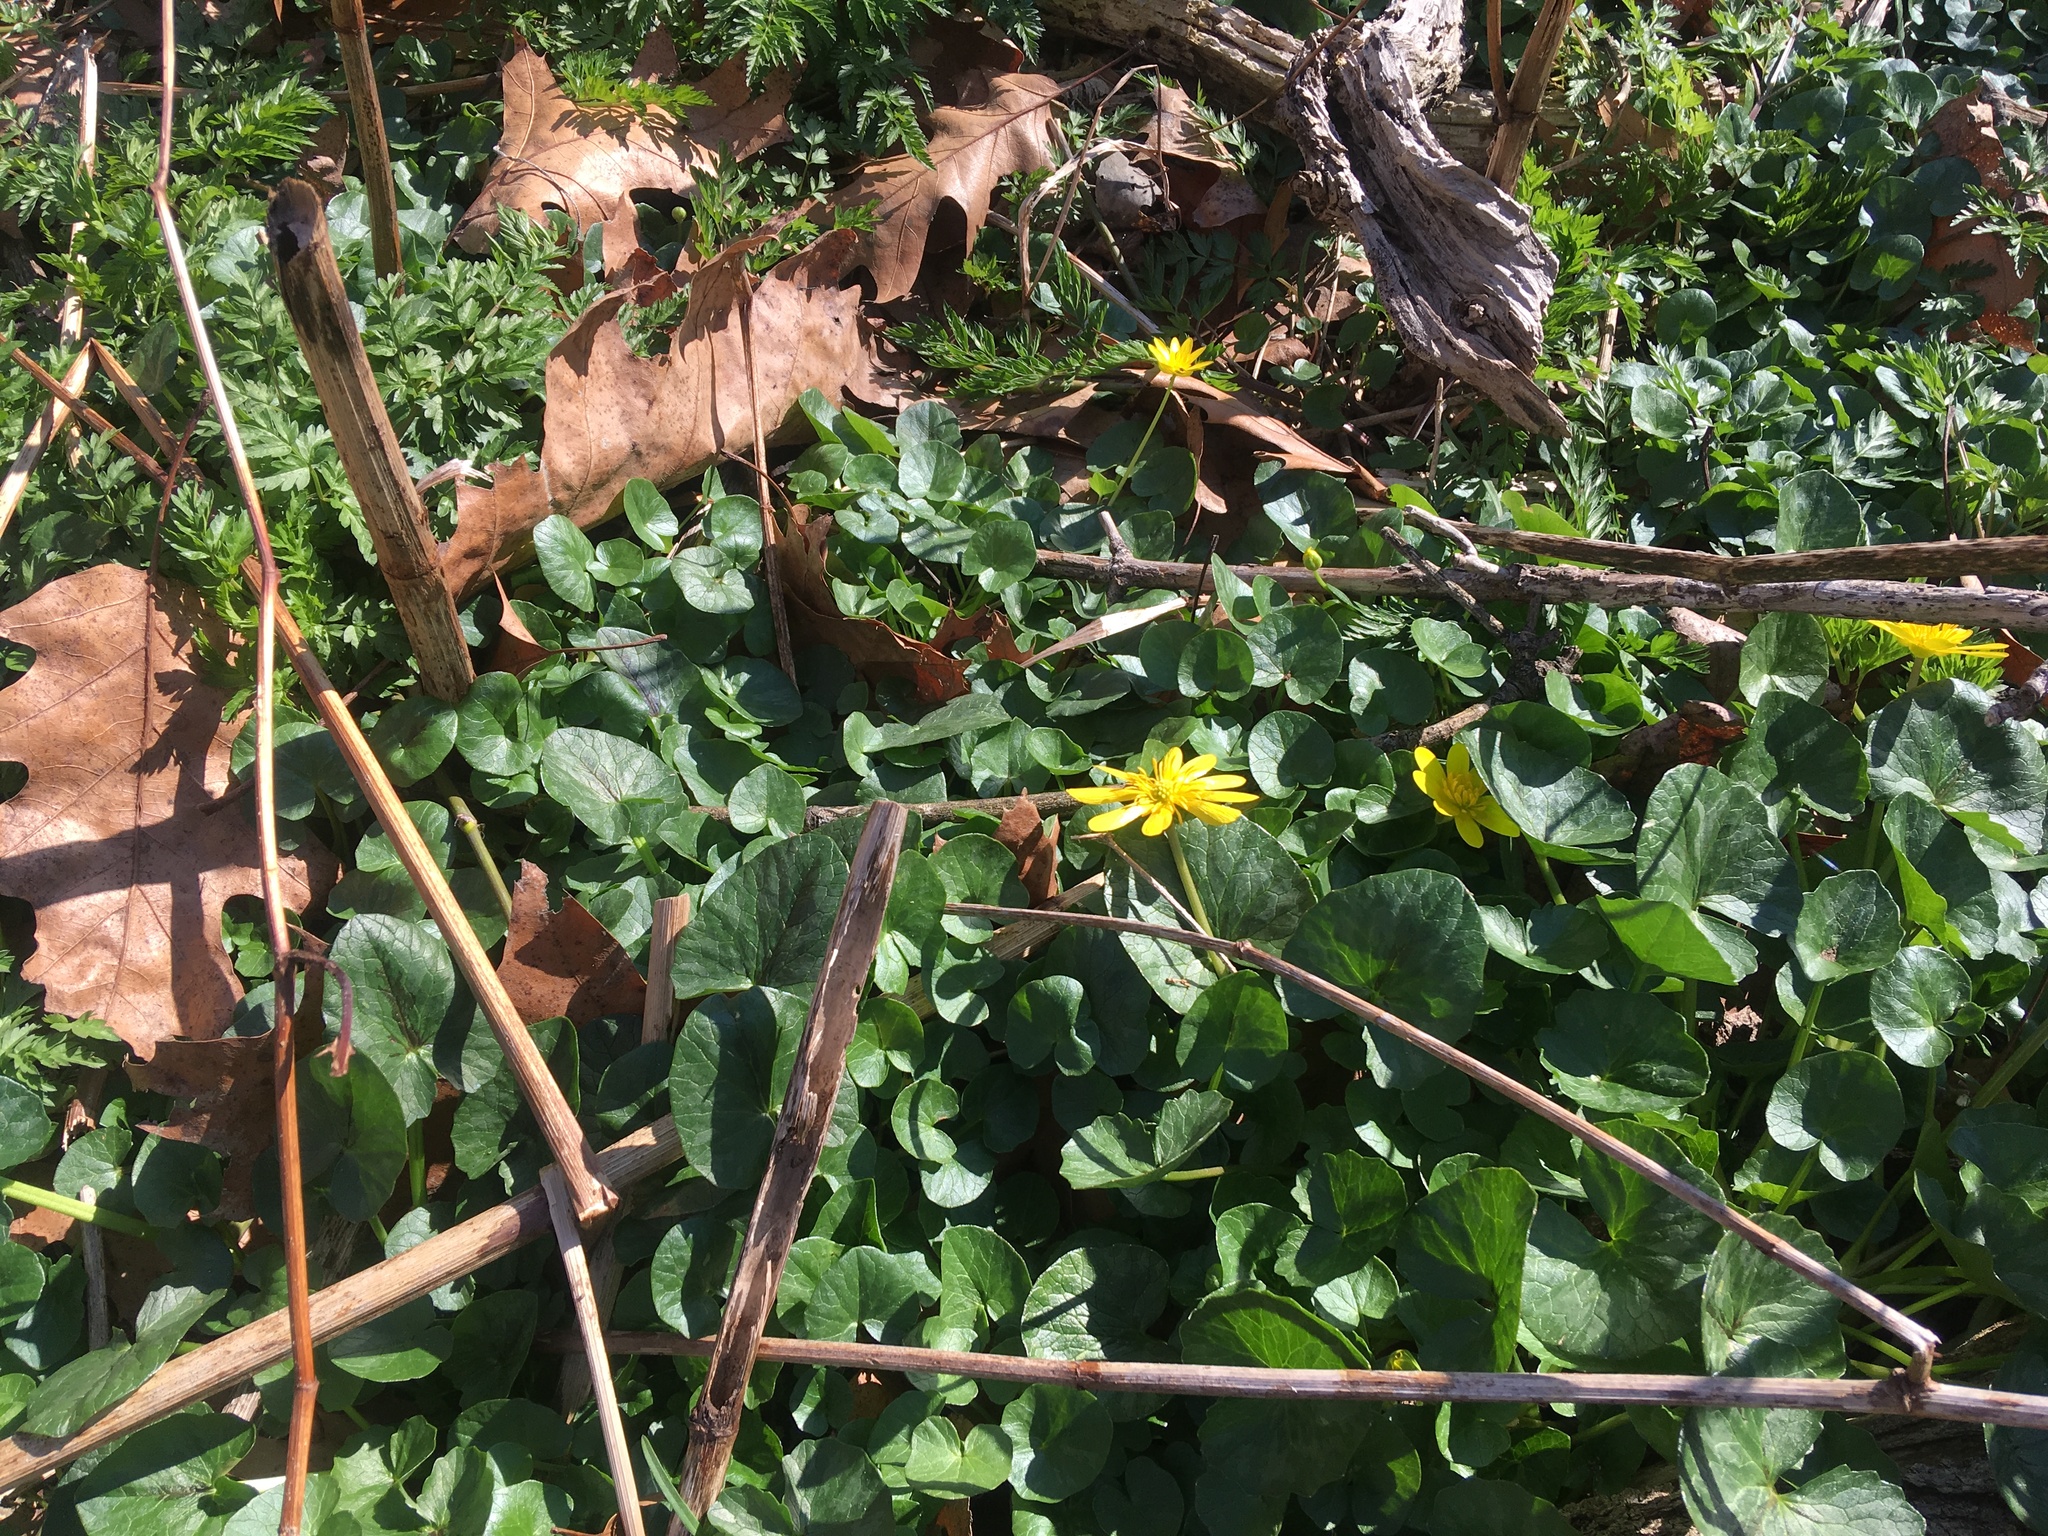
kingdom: Plantae
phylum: Tracheophyta
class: Magnoliopsida
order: Ranunculales
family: Ranunculaceae
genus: Ficaria
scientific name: Ficaria verna
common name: Lesser celandine
